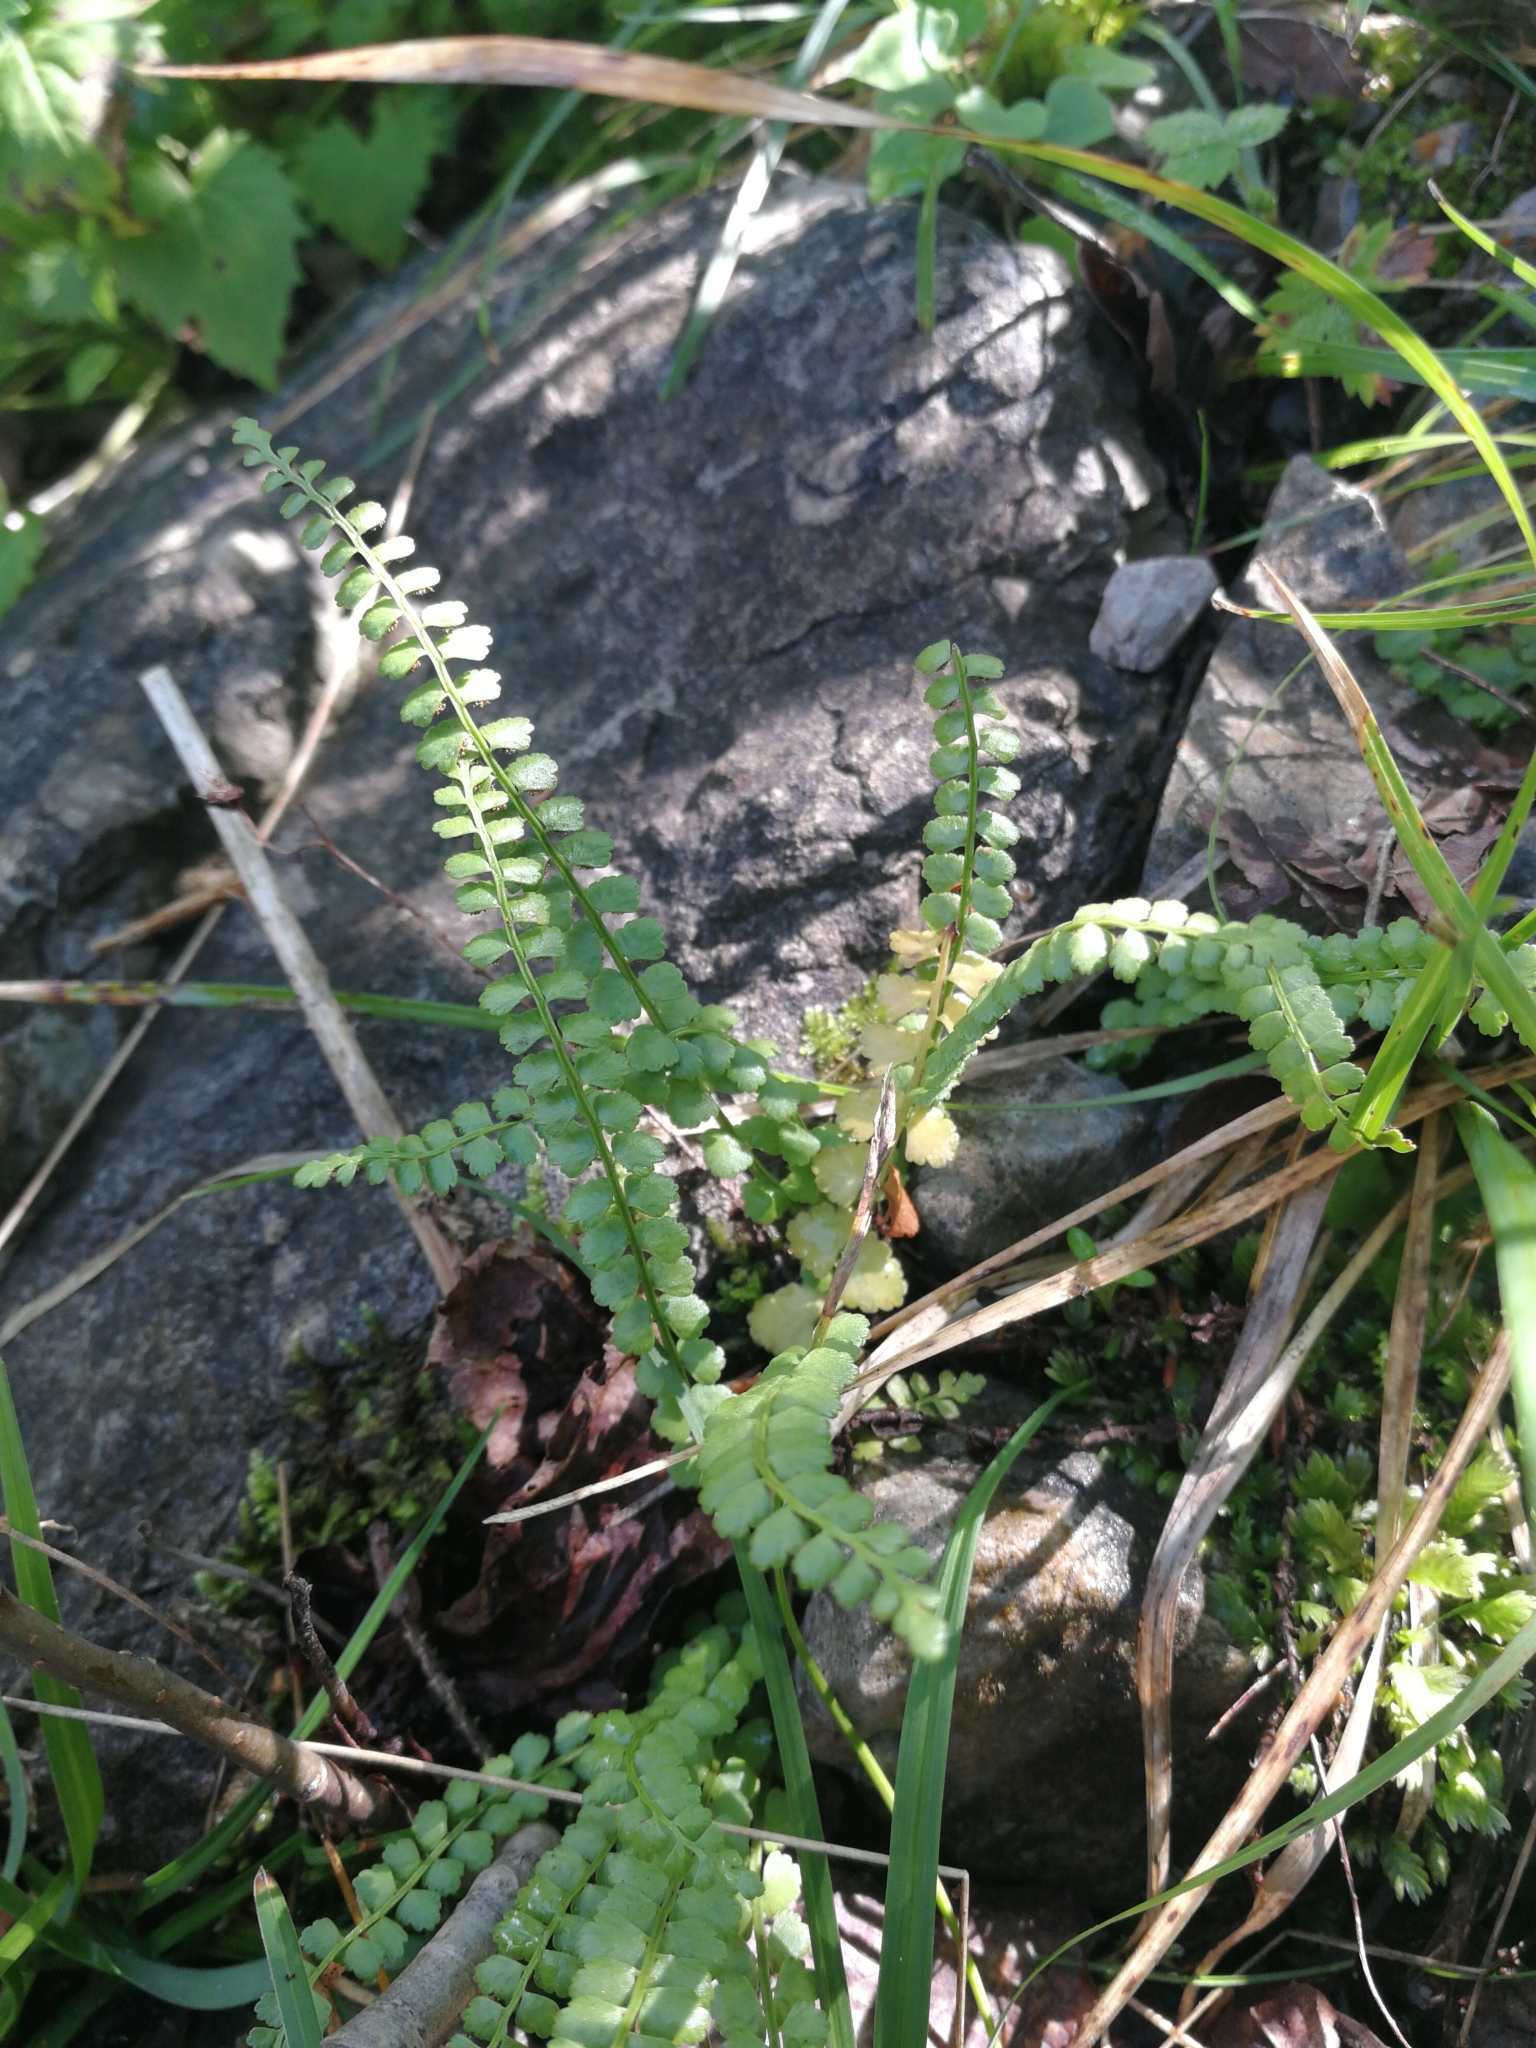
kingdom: Plantae
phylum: Tracheophyta
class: Polypodiopsida
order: Polypodiales
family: Aspleniaceae
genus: Asplenium
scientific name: Asplenium viride
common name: Green spleenwort
